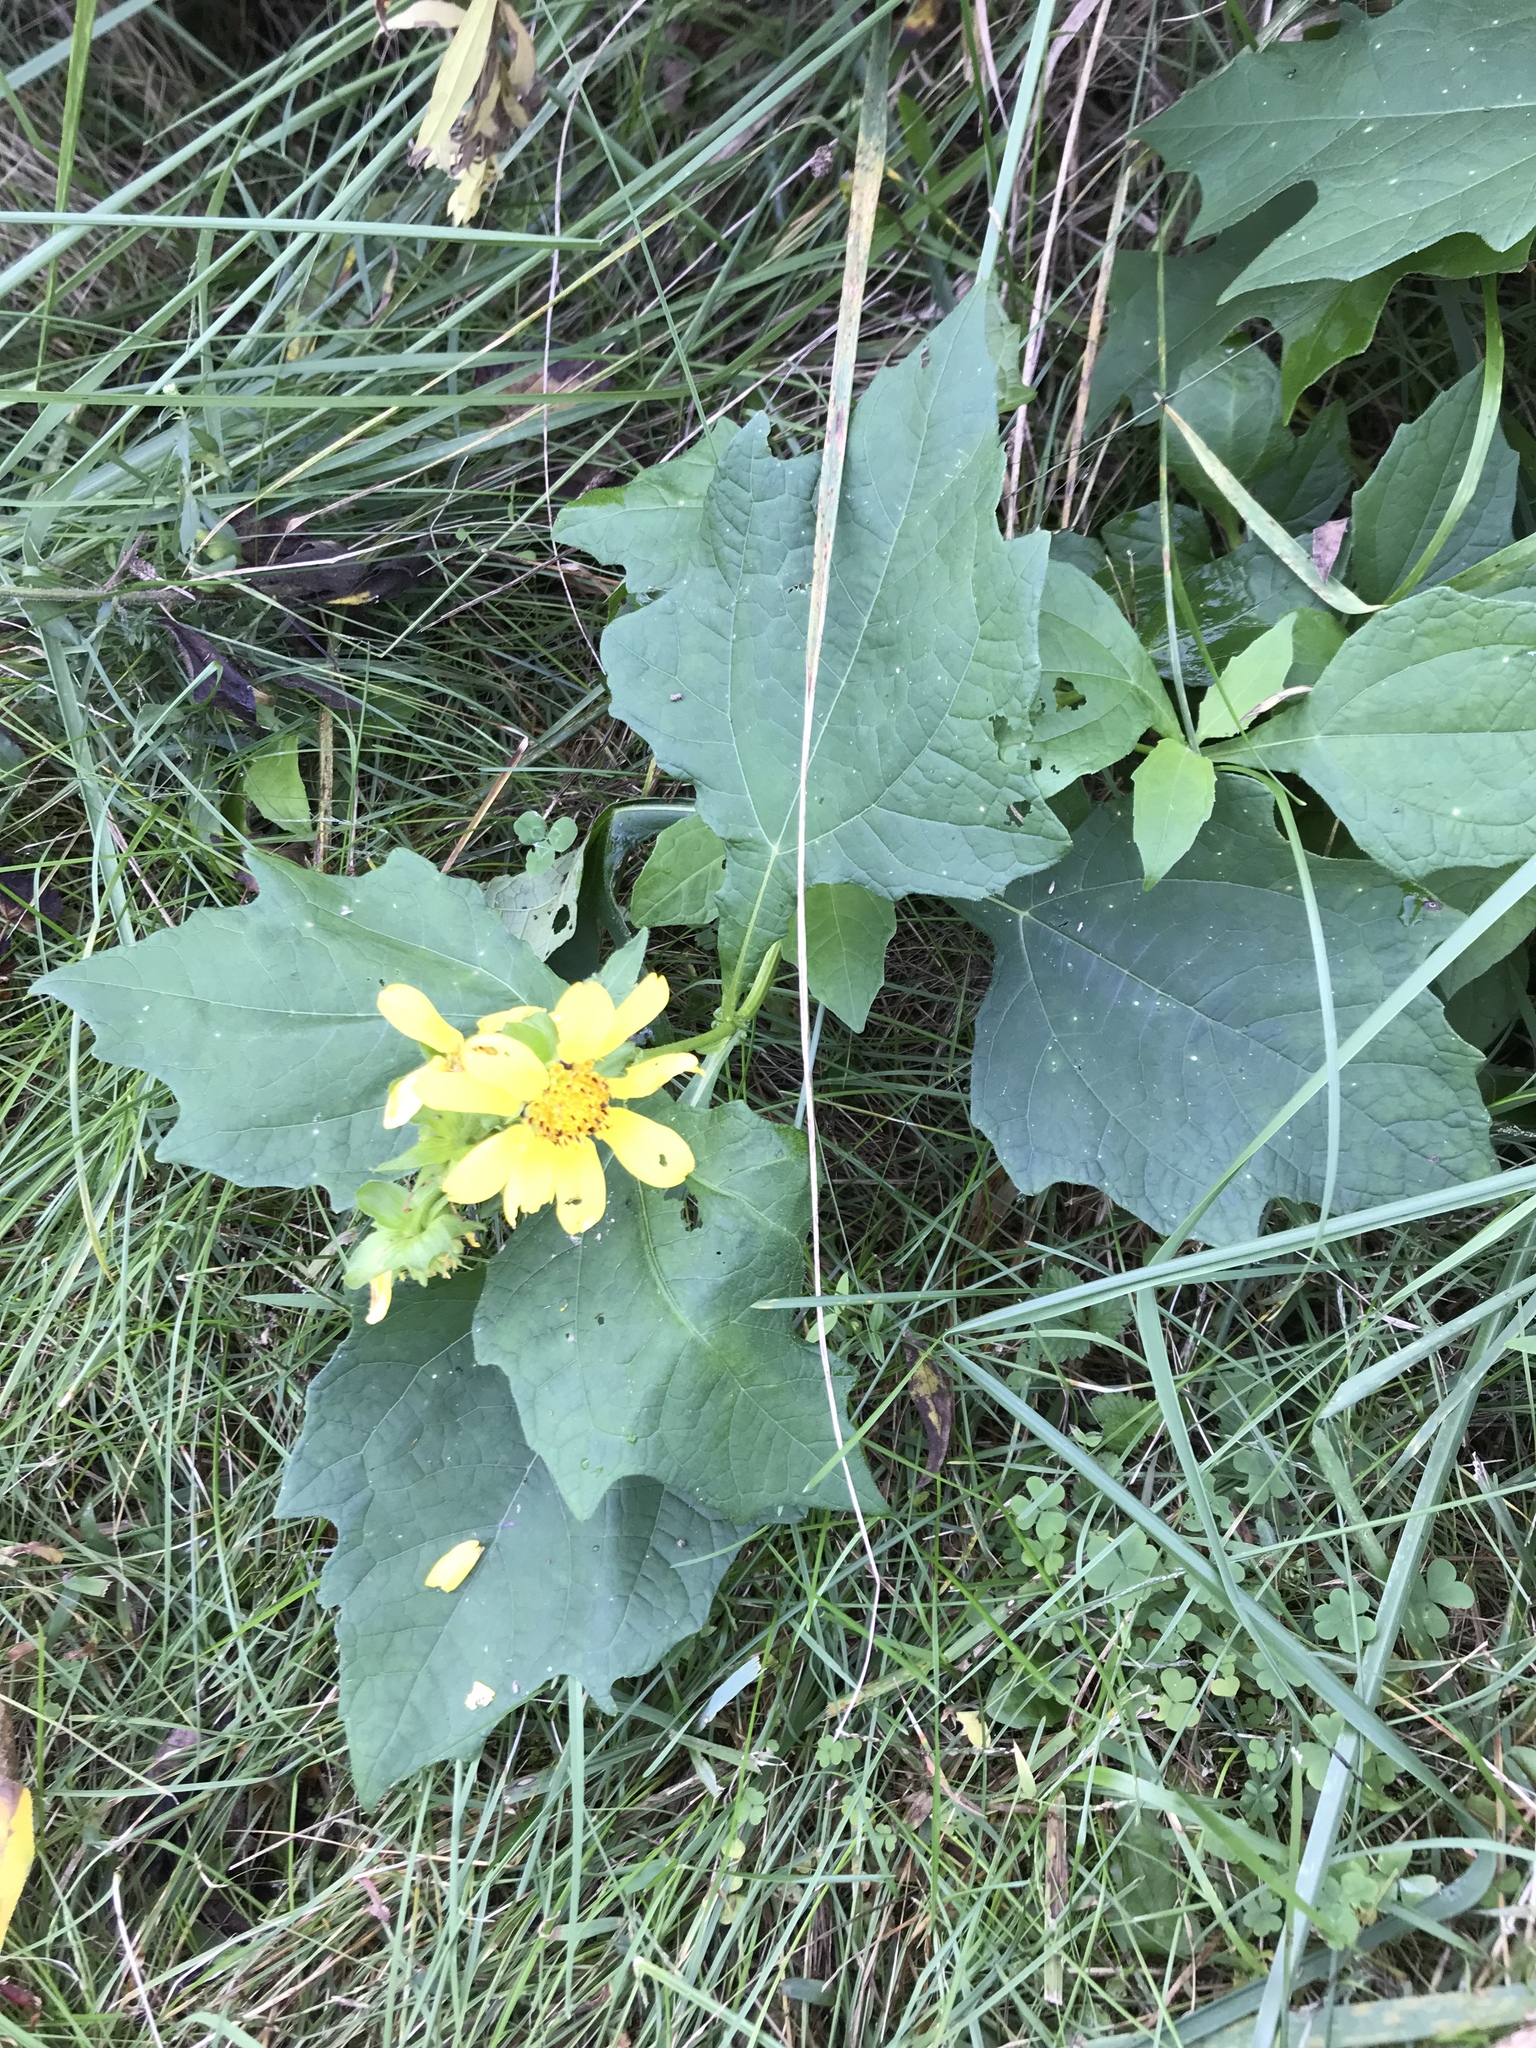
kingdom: Plantae
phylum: Tracheophyta
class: Magnoliopsida
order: Asterales
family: Asteraceae
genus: Smallanthus
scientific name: Smallanthus uvedalia
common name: Bear's-foot
